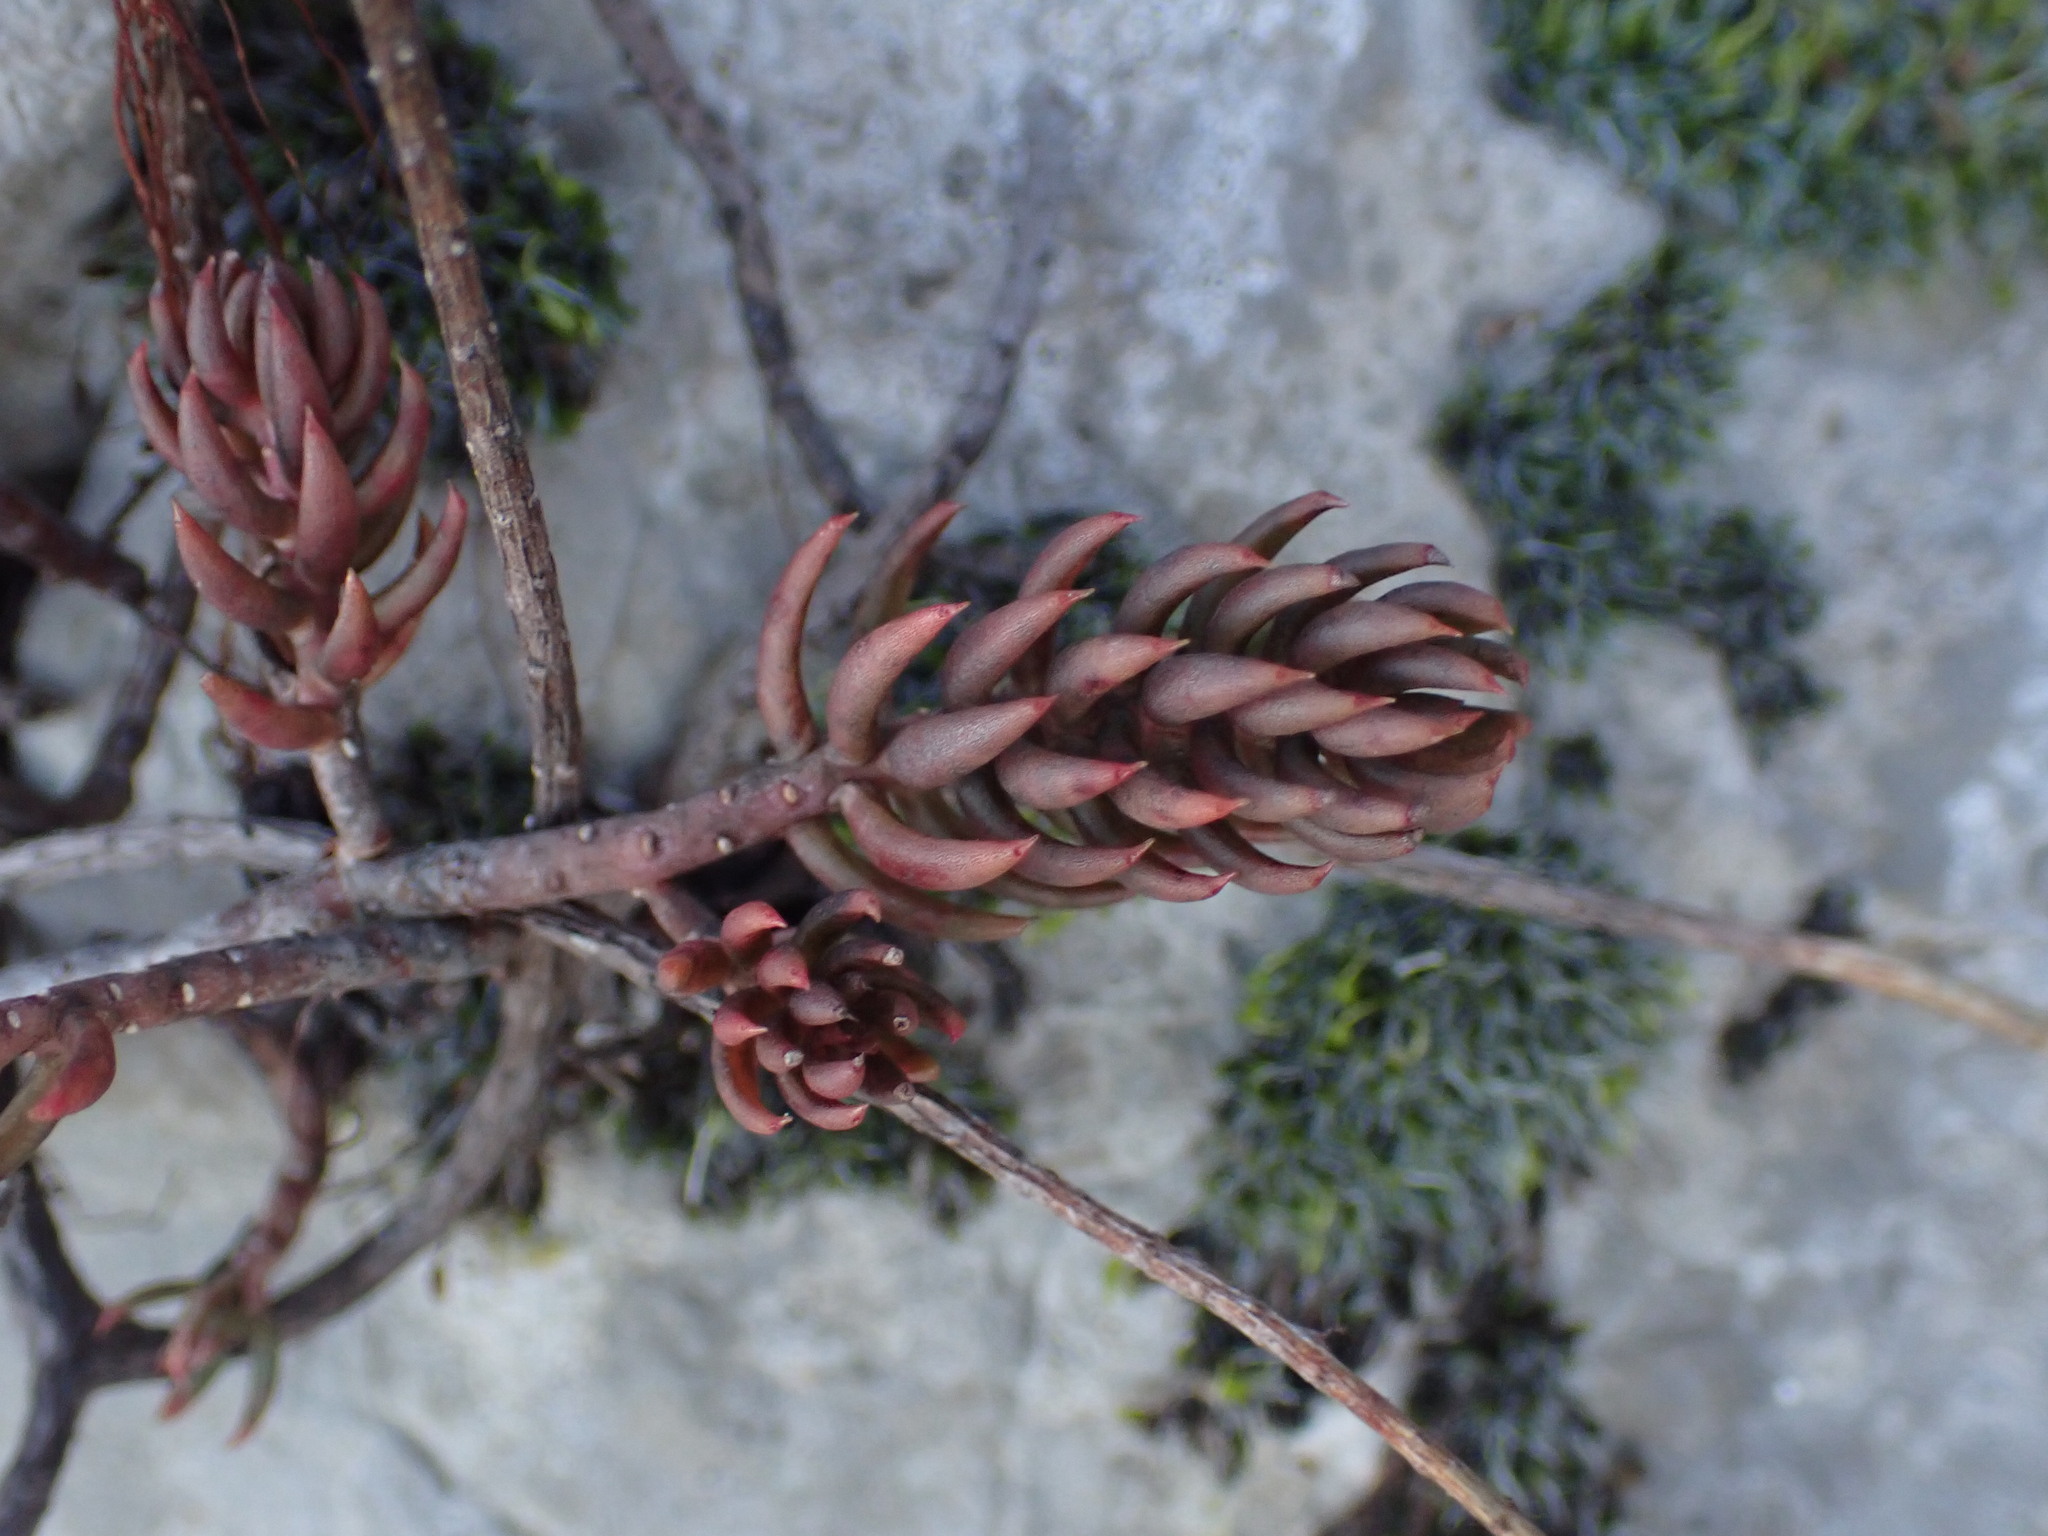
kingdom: Plantae
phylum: Tracheophyta
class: Magnoliopsida
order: Saxifragales
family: Crassulaceae
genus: Petrosedum
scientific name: Petrosedum sediforme
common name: Pale stonecrop
